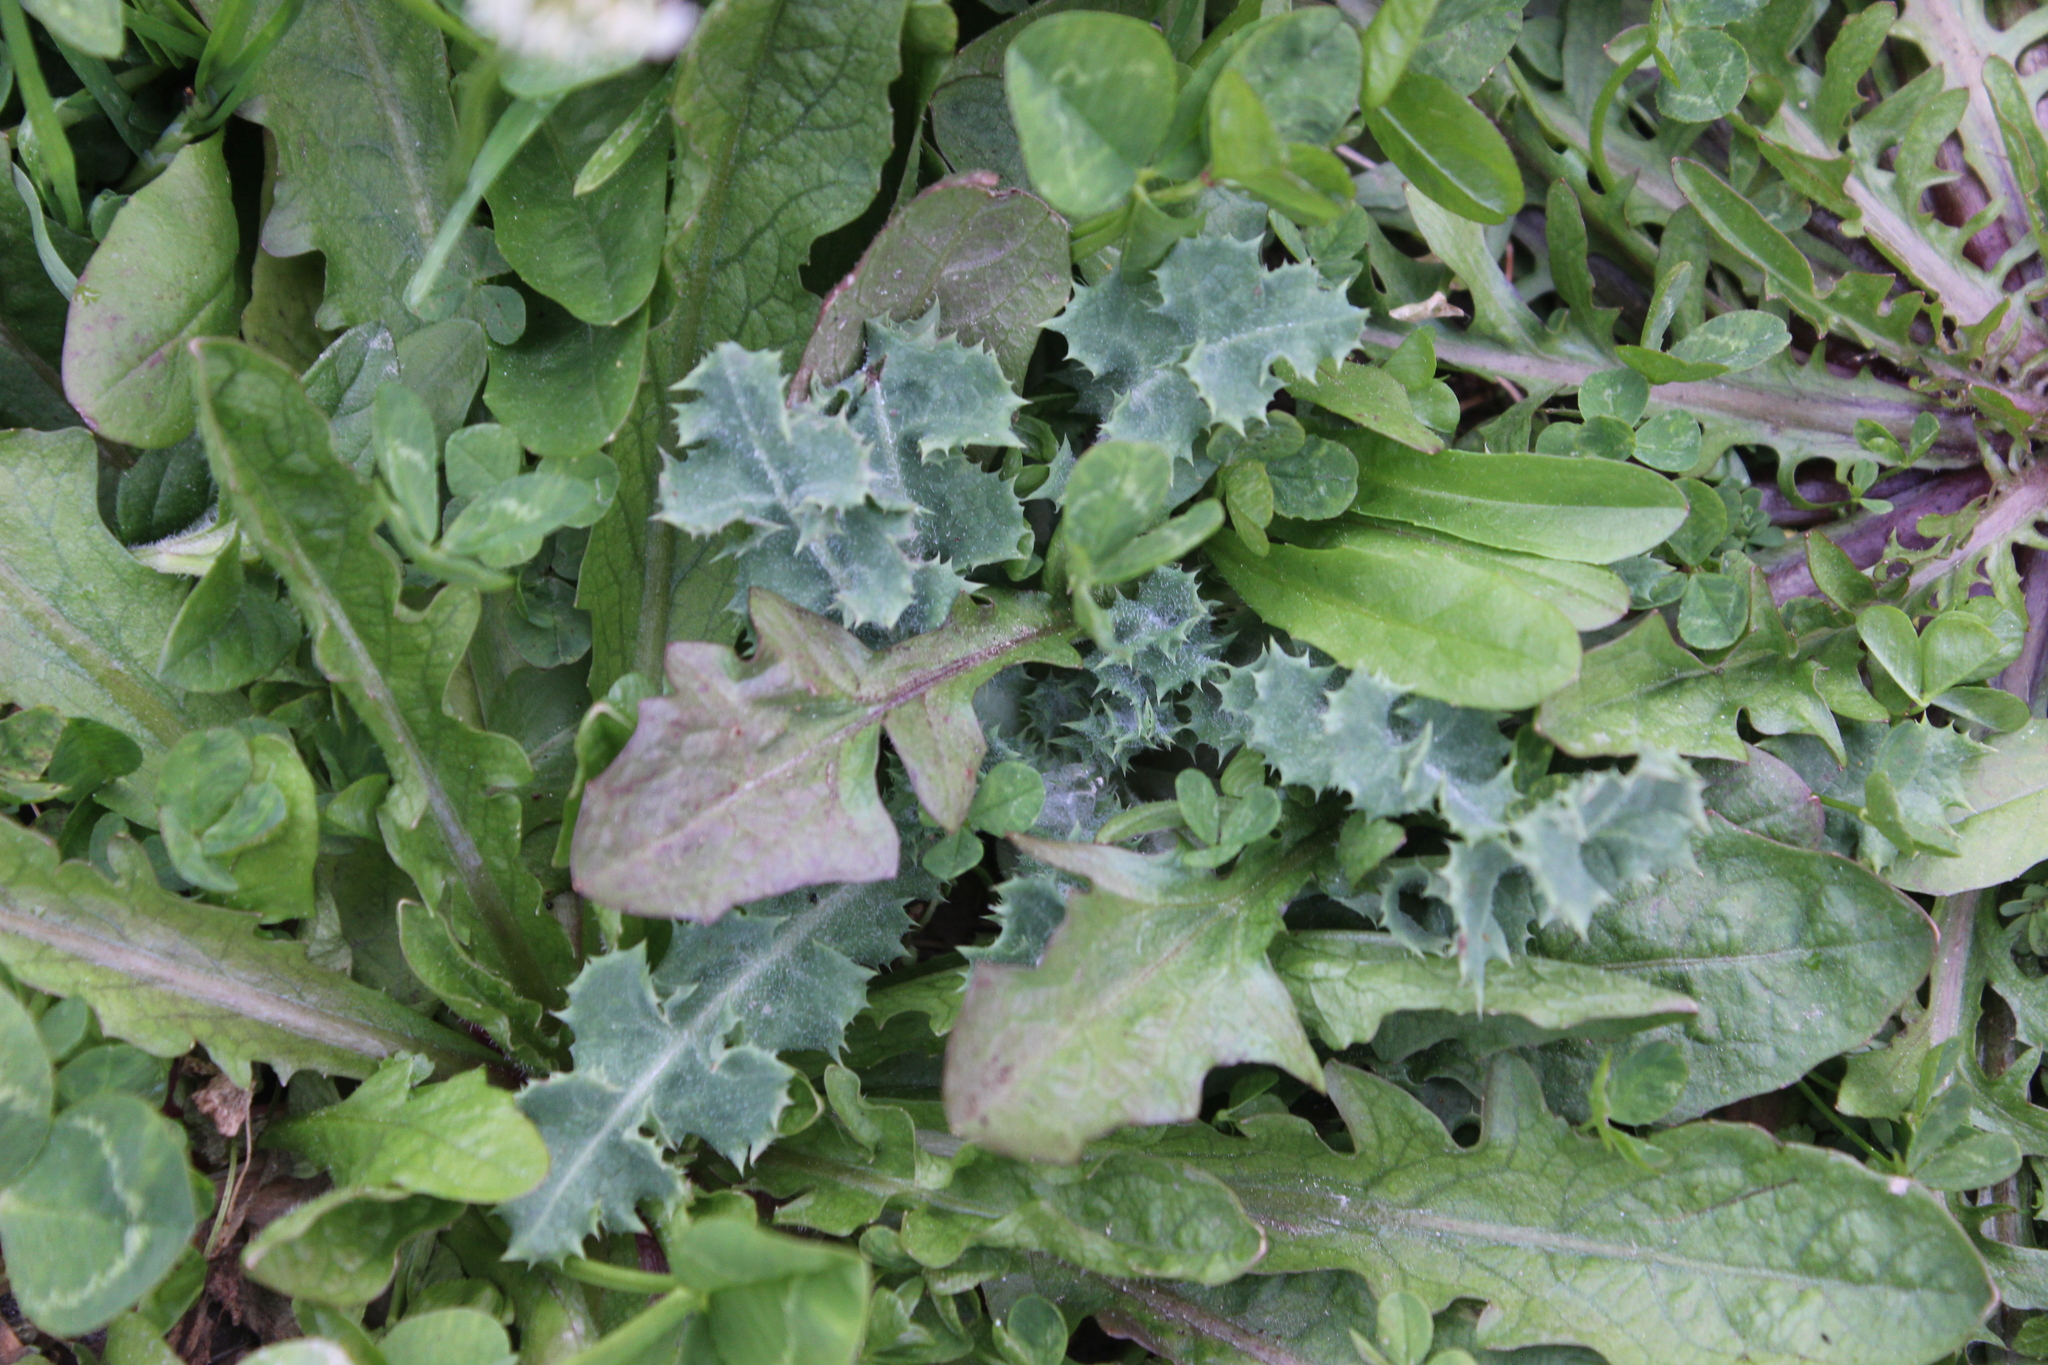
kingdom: Plantae
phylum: Tracheophyta
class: Magnoliopsida
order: Asterales
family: Asteraceae
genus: Sonchus
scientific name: Sonchus asper
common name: Prickly sow-thistle
